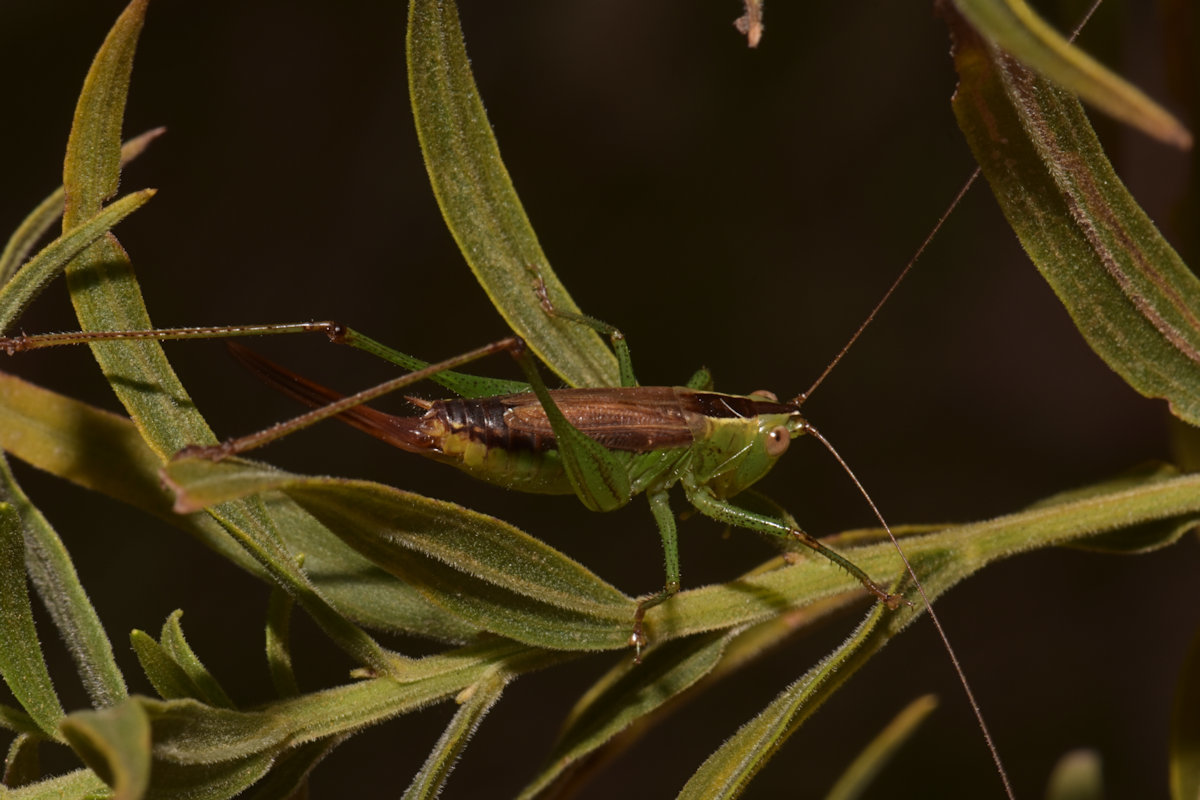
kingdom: Animalia
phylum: Arthropoda
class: Insecta
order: Orthoptera
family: Tettigoniidae
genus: Conocephalus
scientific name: Conocephalus brevipennis
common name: Short-winged meadow katydid
